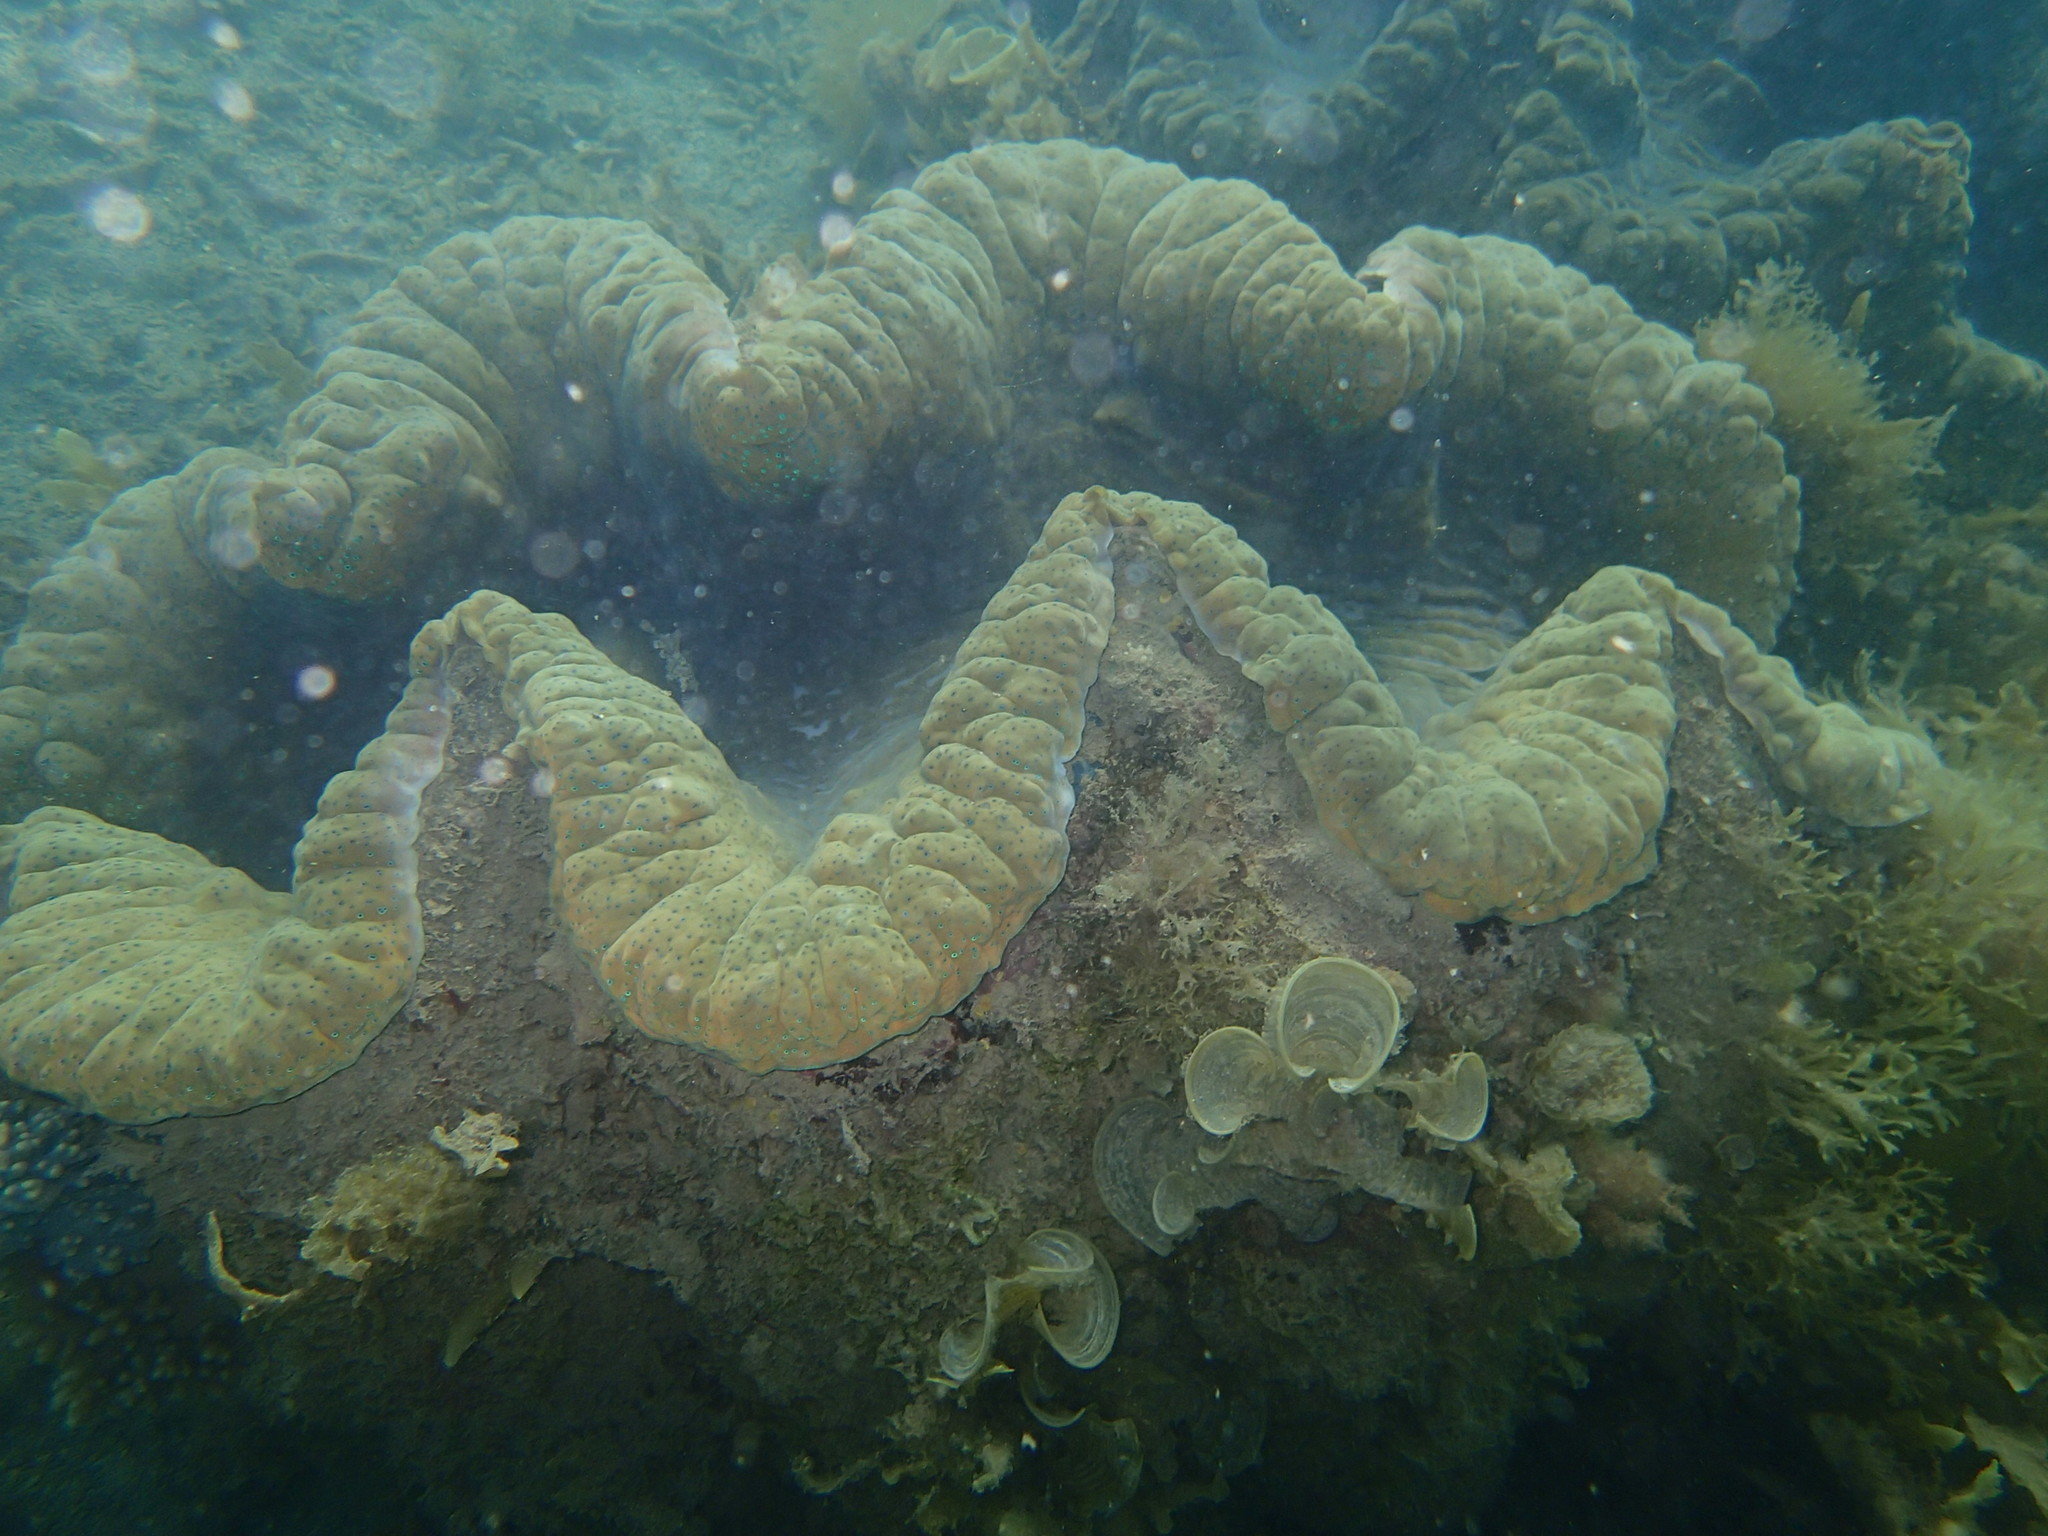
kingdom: Animalia
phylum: Mollusca
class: Bivalvia
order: Cardiida
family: Cardiidae
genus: Tridacna
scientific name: Tridacna gigas
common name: Giant clam
